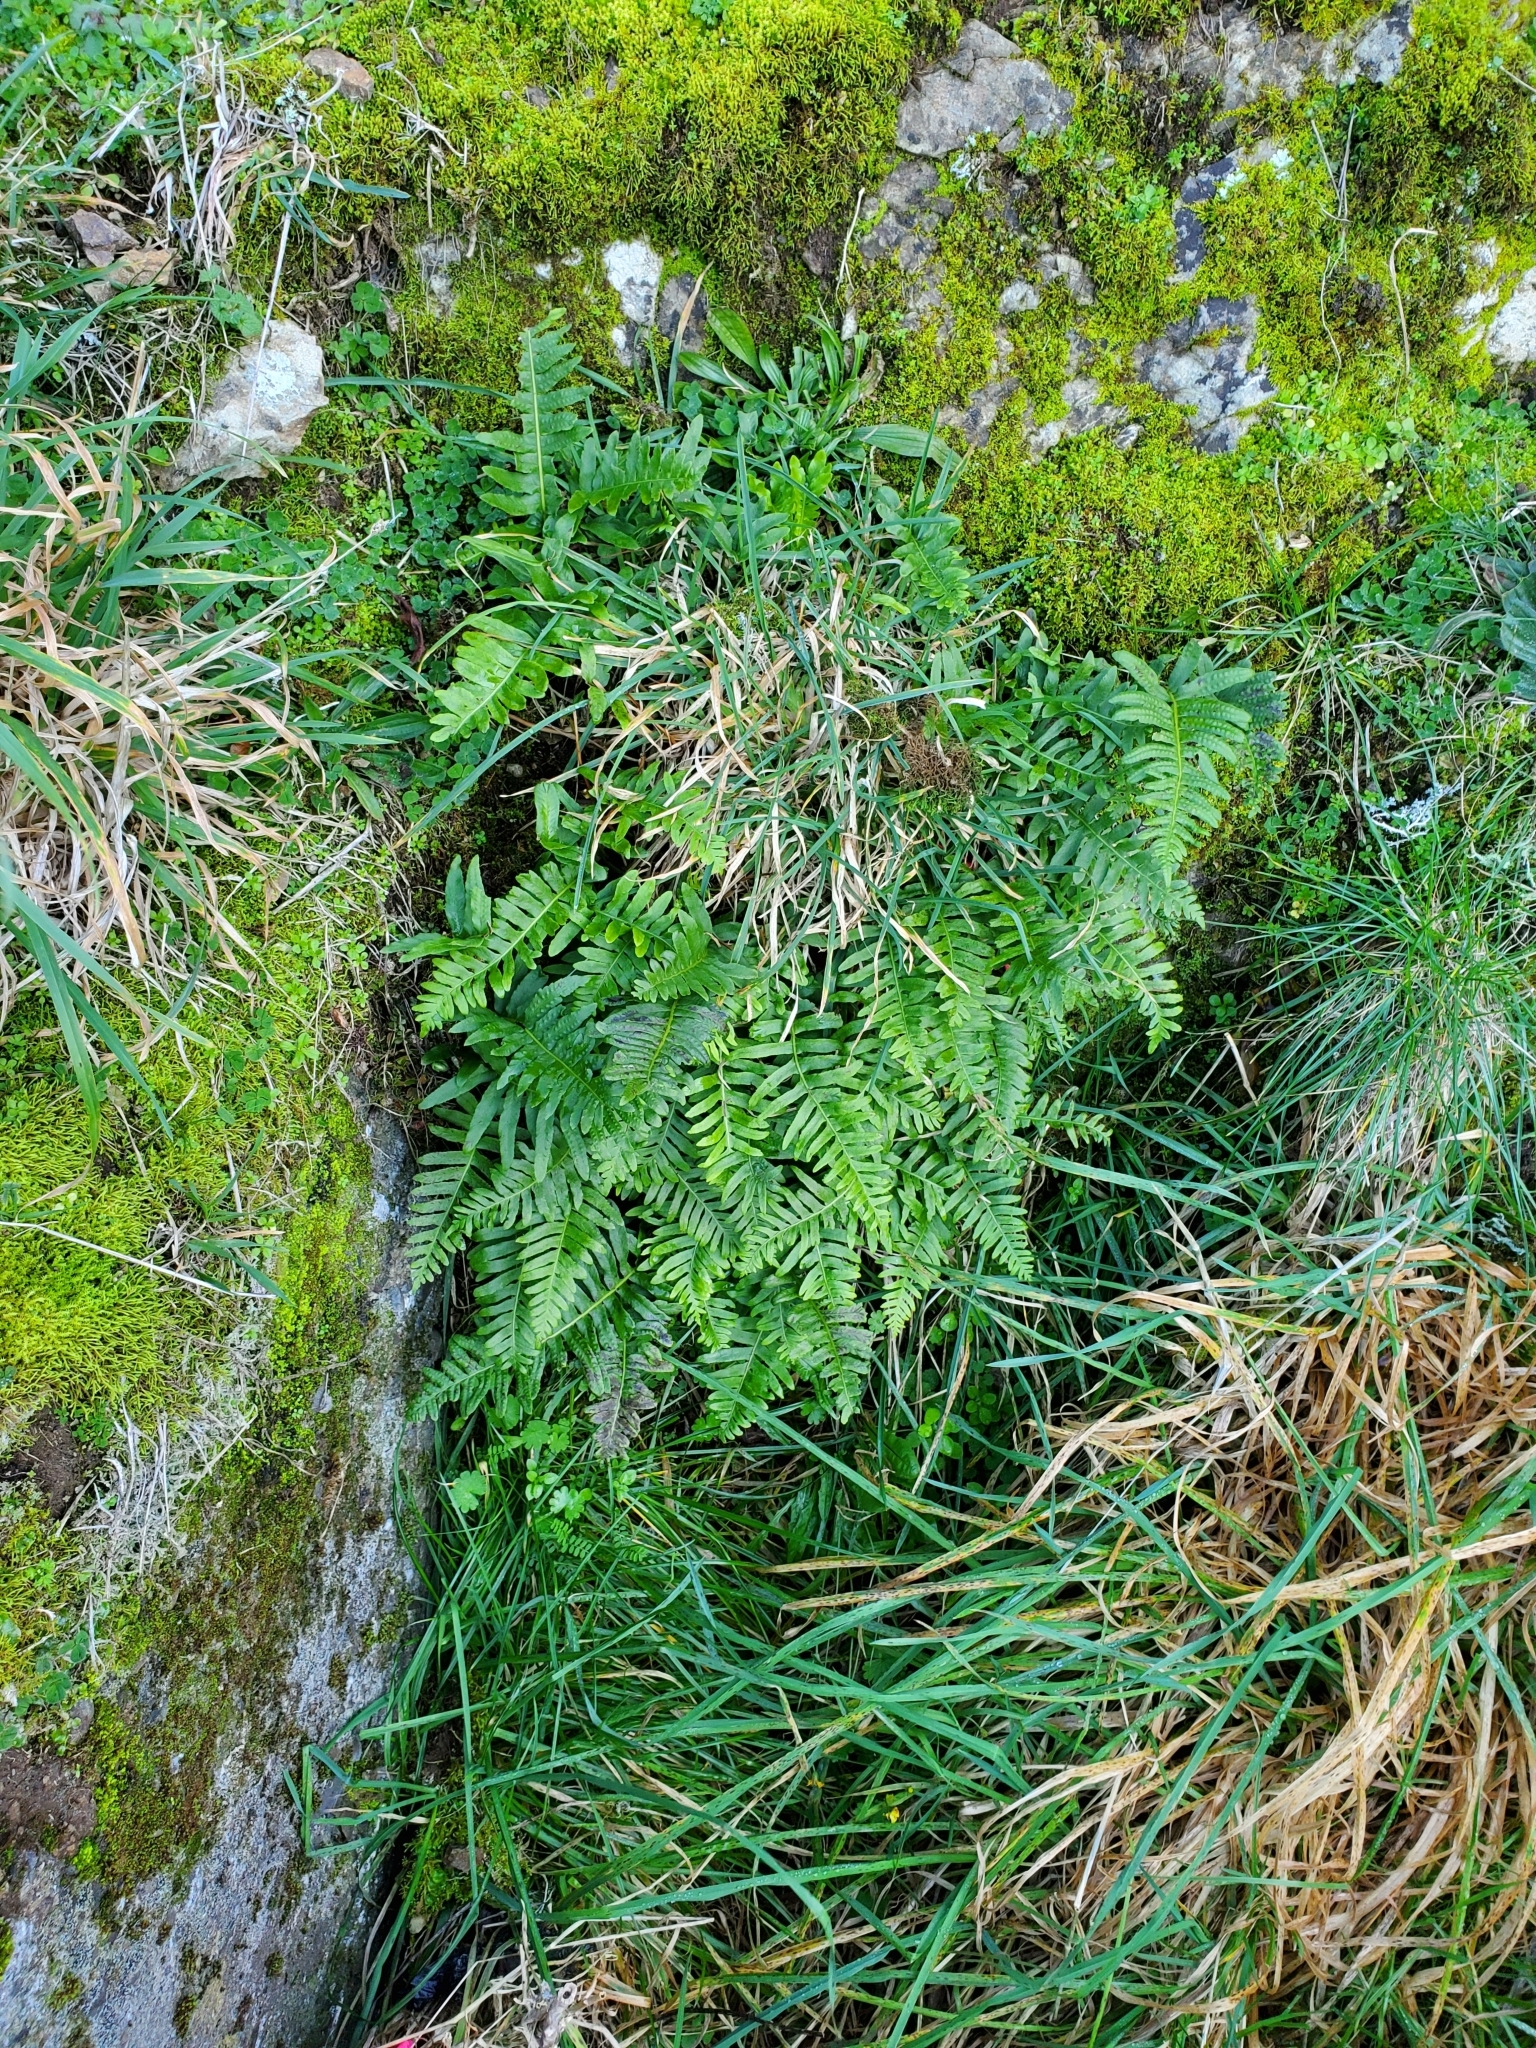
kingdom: Plantae
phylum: Tracheophyta
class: Polypodiopsida
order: Polypodiales
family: Polypodiaceae
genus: Polypodium
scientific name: Polypodium vulgare
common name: Common polypody
